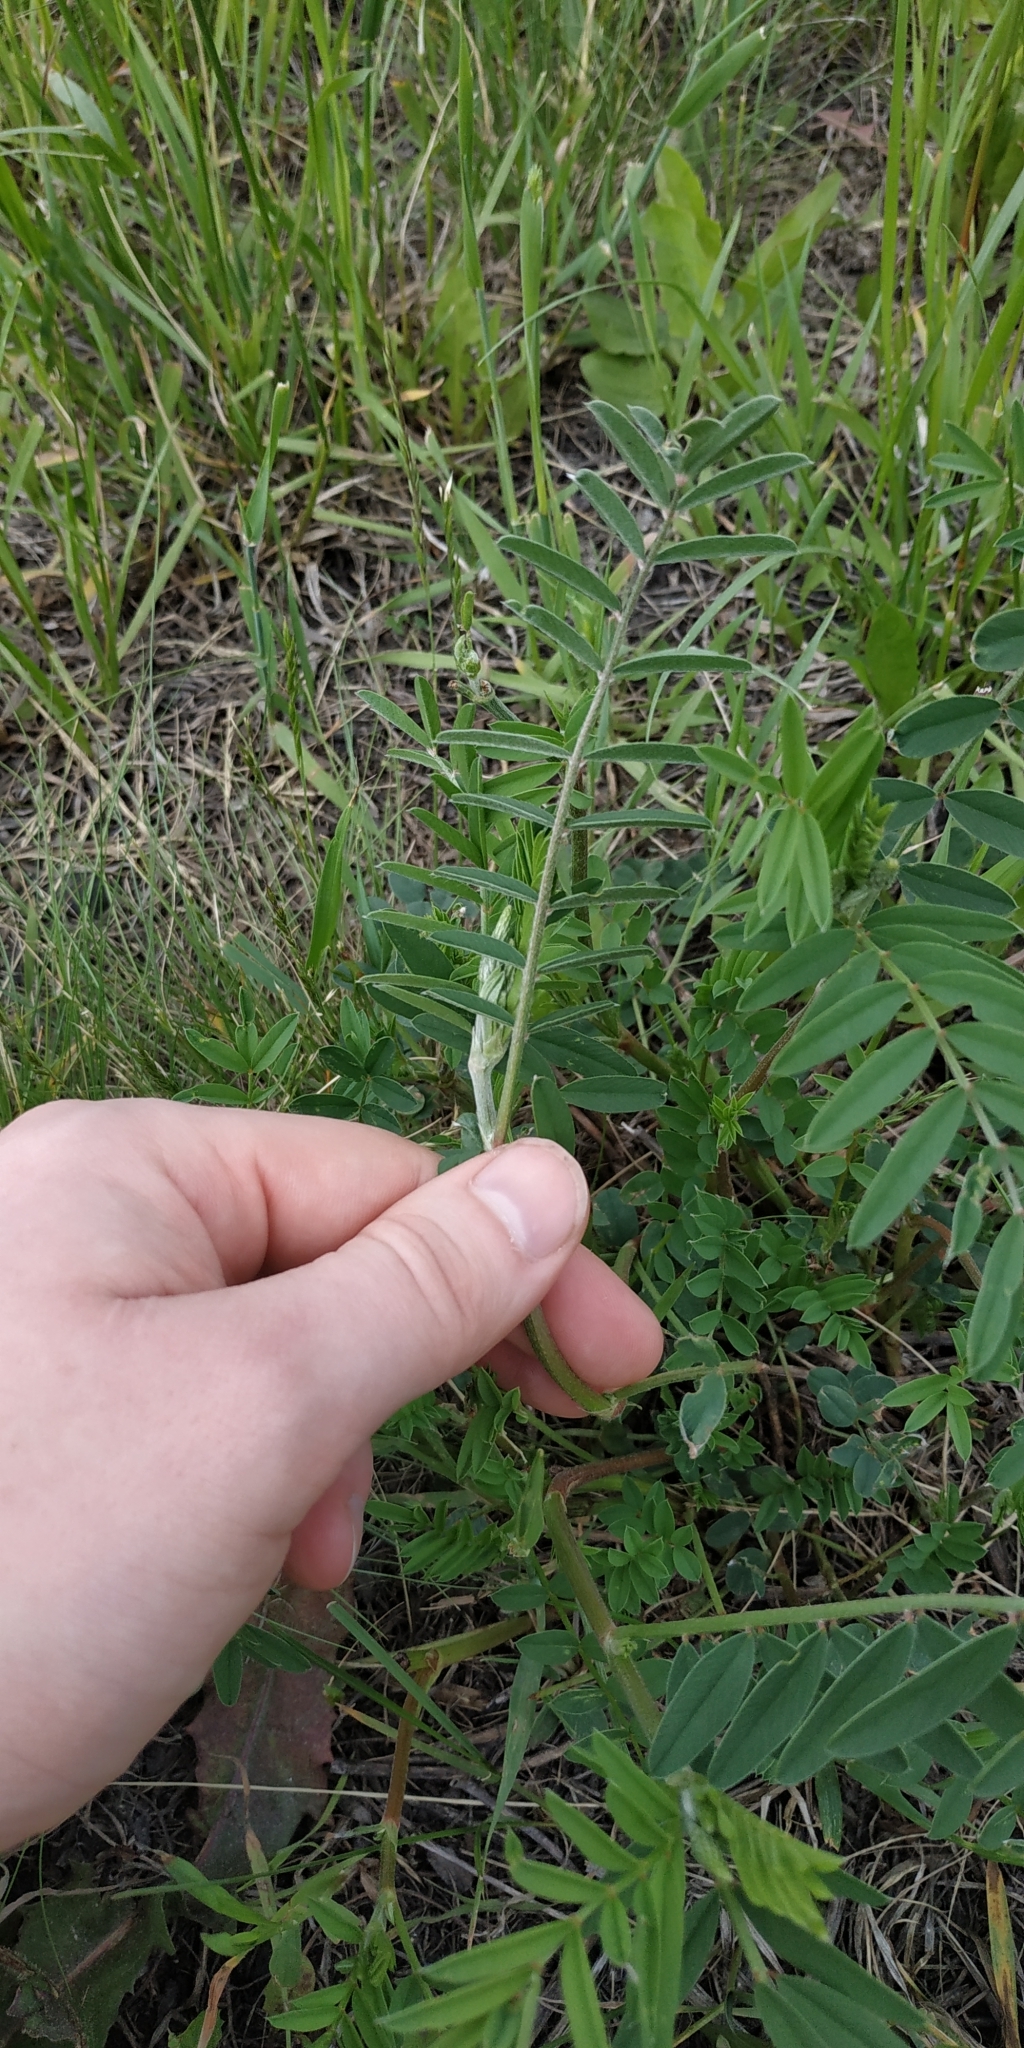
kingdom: Plantae
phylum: Tracheophyta
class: Magnoliopsida
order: Fabales
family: Fabaceae
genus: Onobrychis
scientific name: Onobrychis viciifolia
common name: Sainfoin
